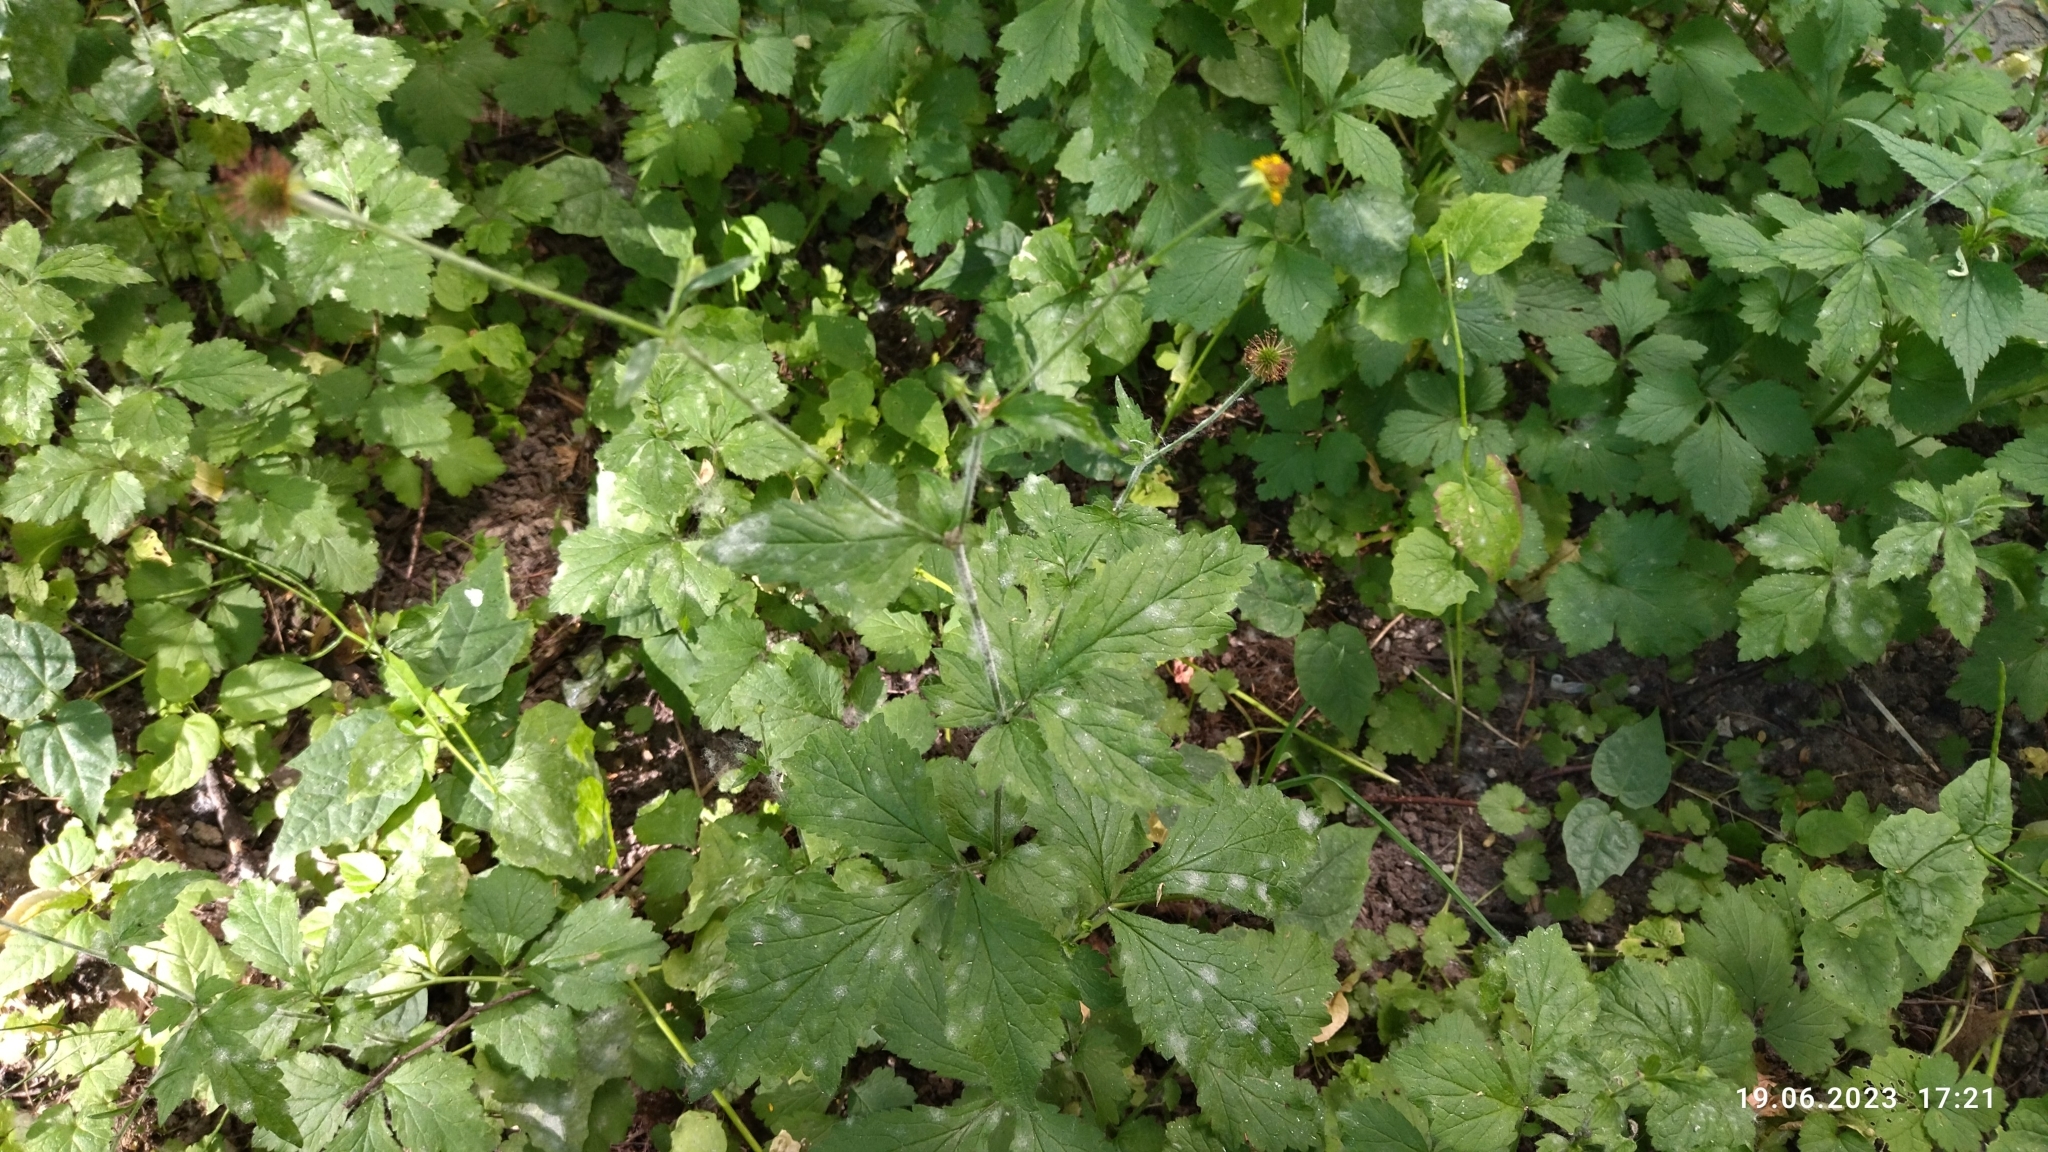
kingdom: Plantae
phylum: Tracheophyta
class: Magnoliopsida
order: Rosales
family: Rosaceae
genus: Geum
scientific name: Geum urbanum
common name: Wood avens
